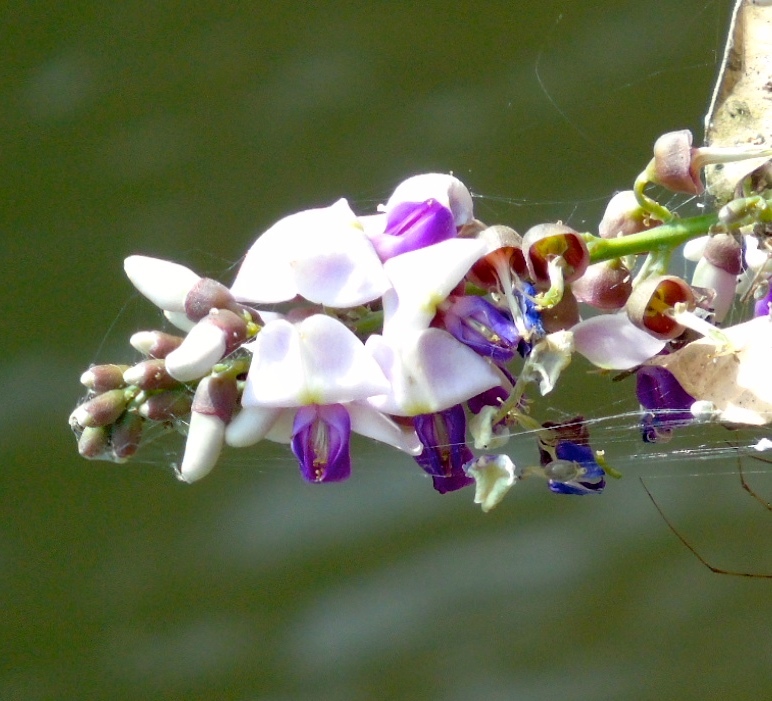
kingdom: Plantae
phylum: Tracheophyta
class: Magnoliopsida
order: Fabales
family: Fabaceae
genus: Lonchocarpus
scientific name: Lonchocarpus guatemalensis
